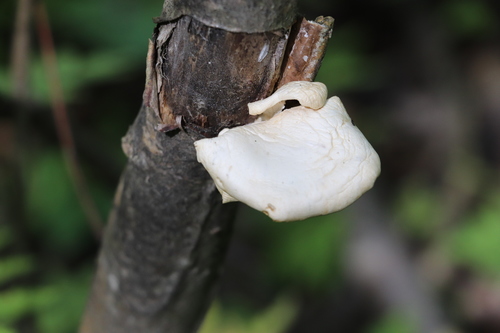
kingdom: Fungi
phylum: Basidiomycota
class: Agaricomycetes
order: Agaricales
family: Pleurotaceae
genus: Pleurotus
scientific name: Pleurotus pulmonarius
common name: Pale oyster
